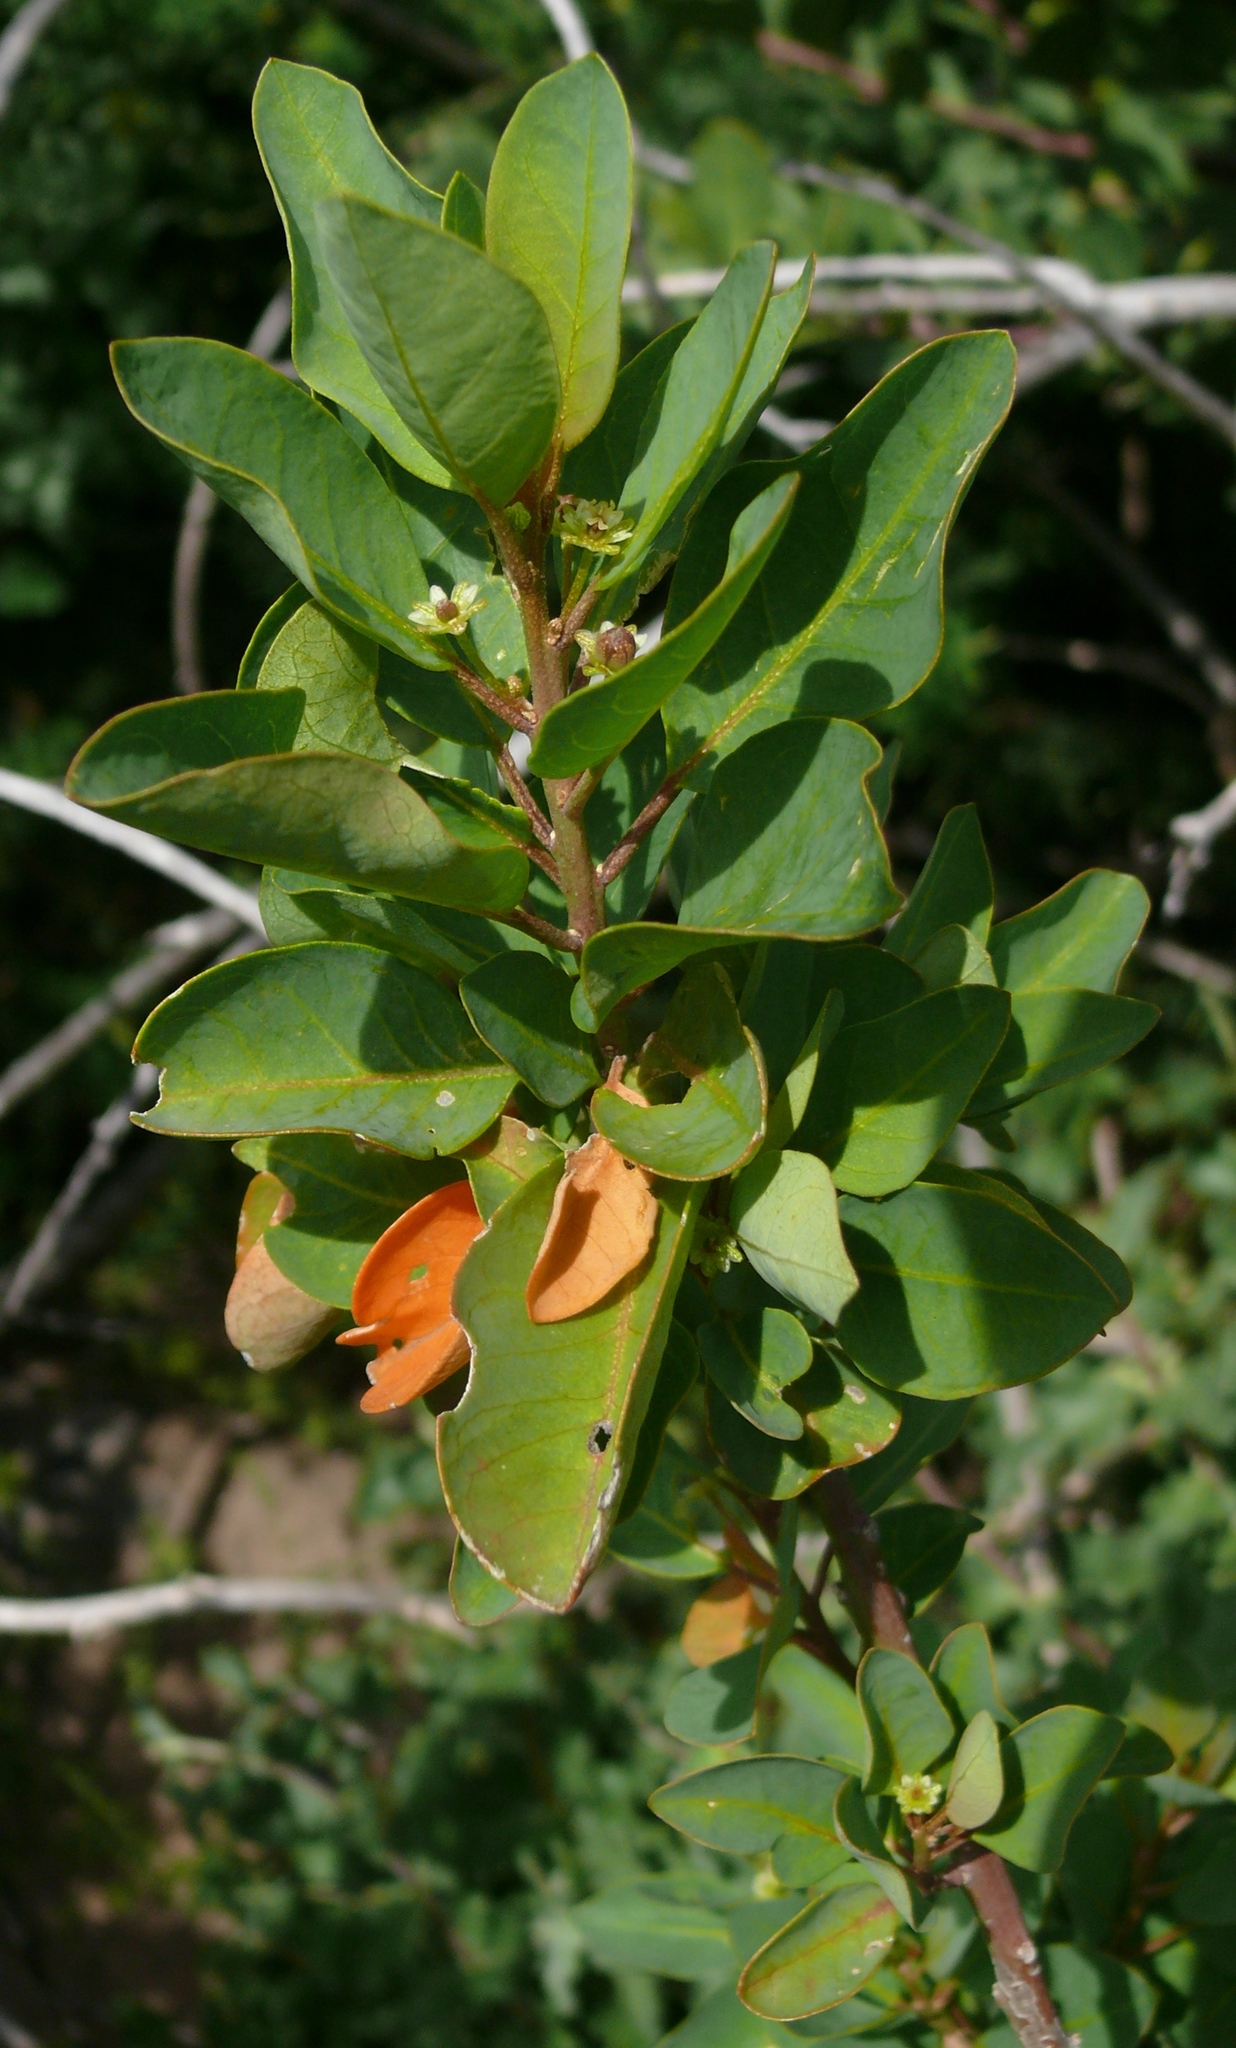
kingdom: Plantae
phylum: Tracheophyta
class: Magnoliopsida
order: Malpighiales
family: Peraceae
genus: Clutia
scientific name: Clutia pulchella
